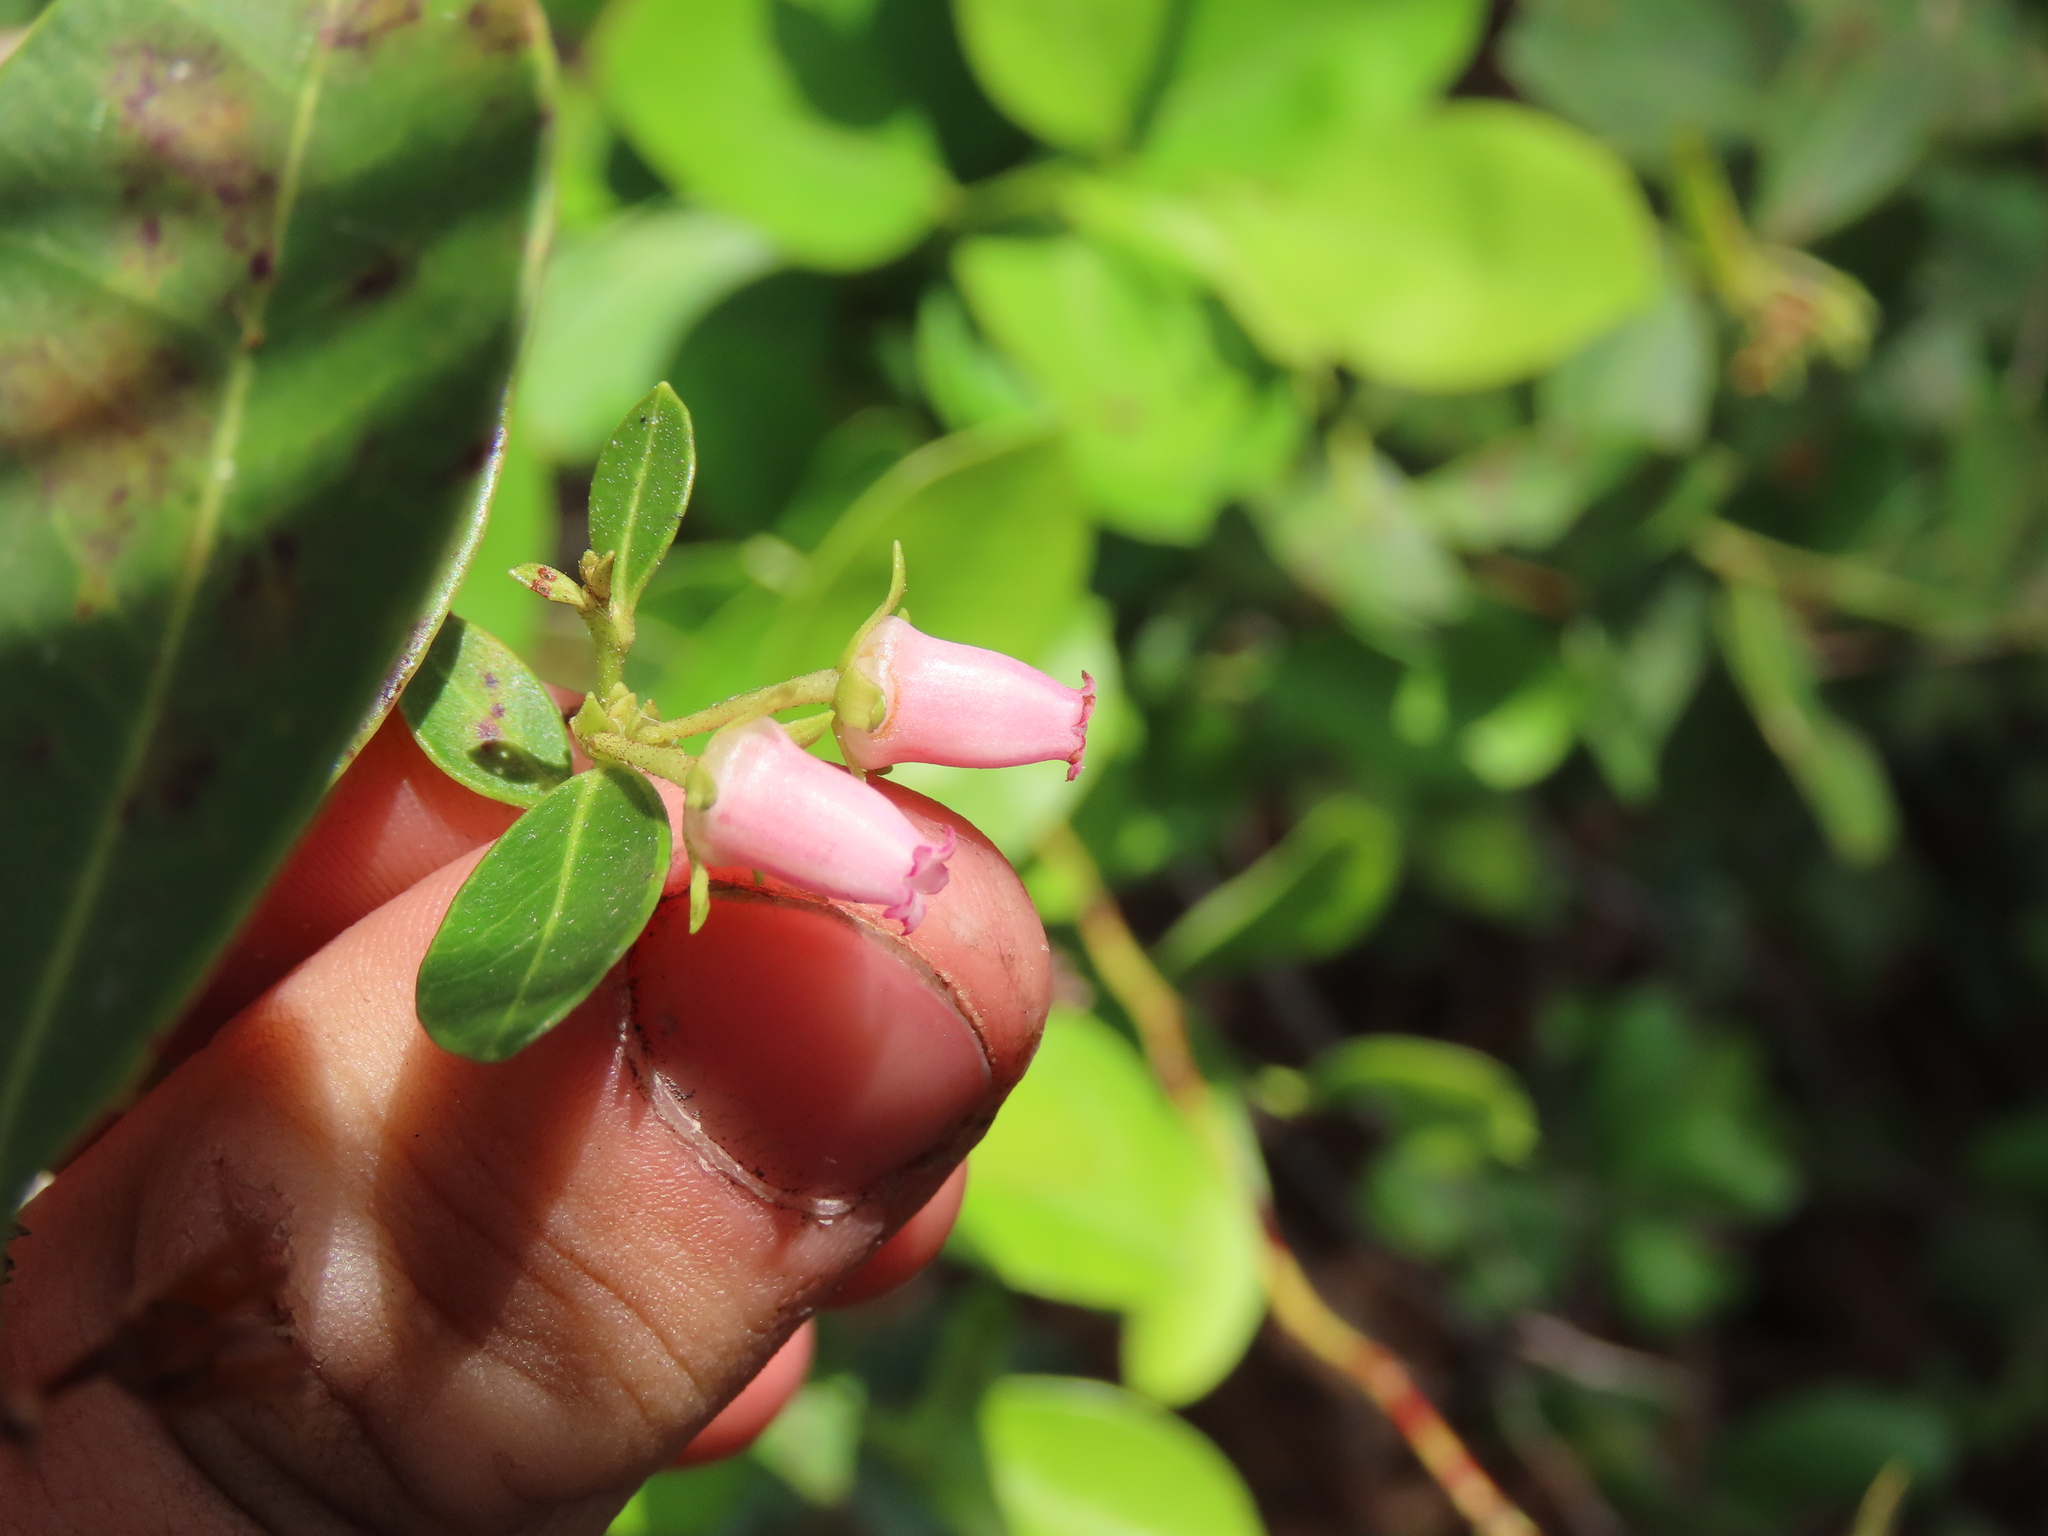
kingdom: Plantae
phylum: Tracheophyta
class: Magnoliopsida
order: Ericales
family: Ericaceae
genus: Lyonia
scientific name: Lyonia lucida
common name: Fetterbush
